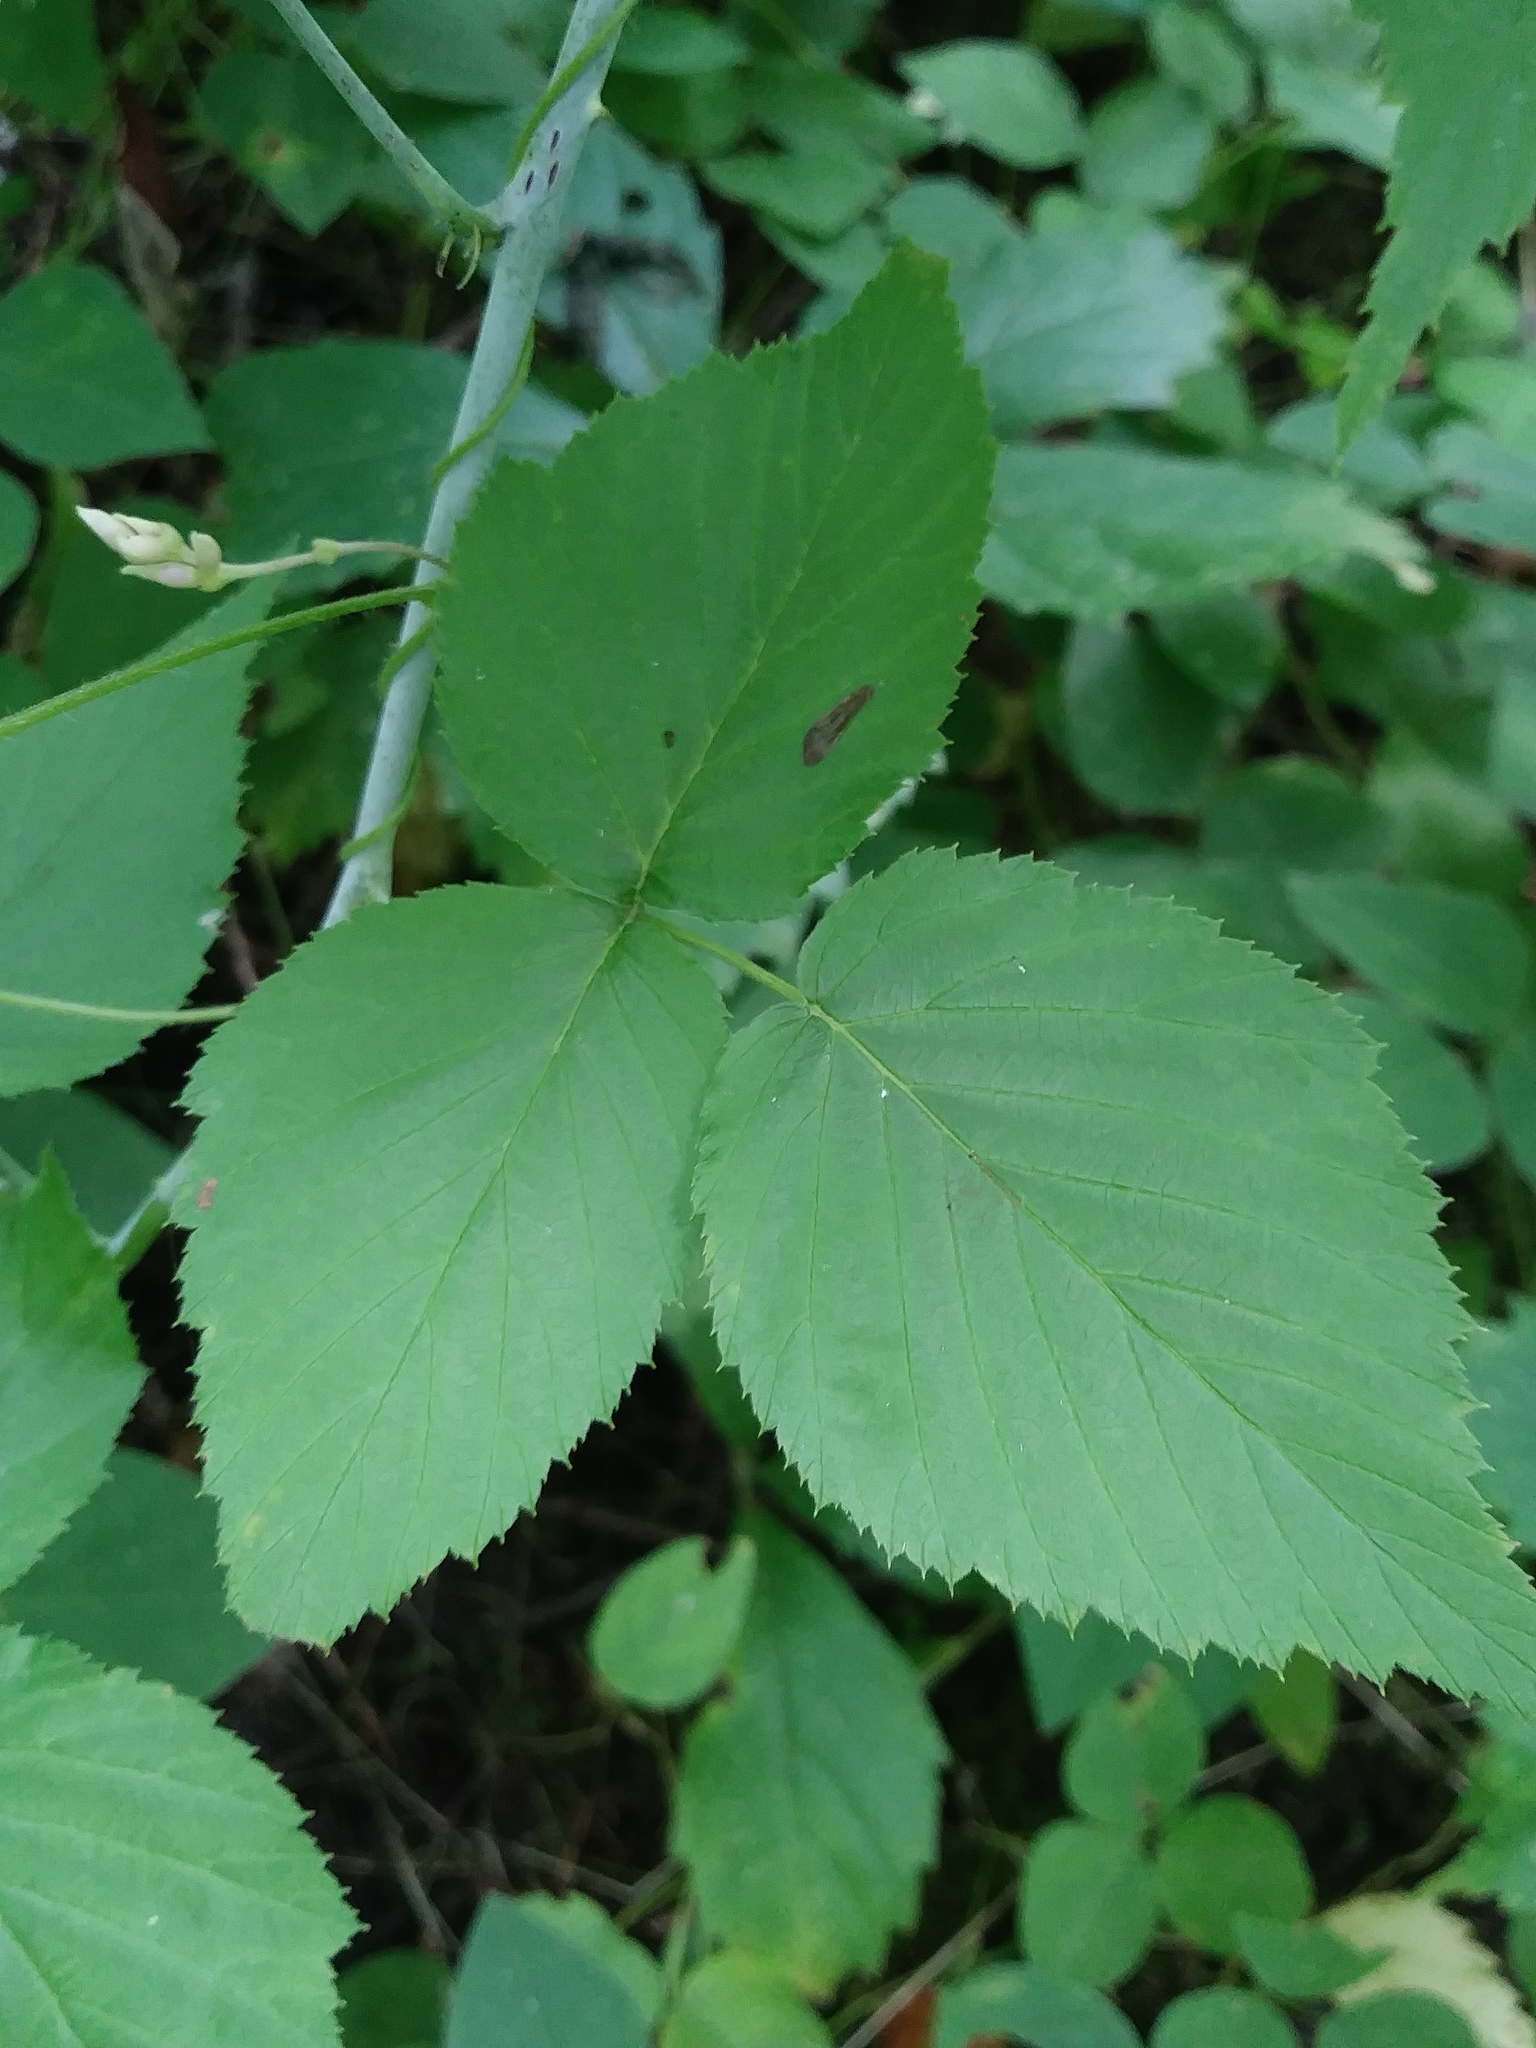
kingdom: Plantae
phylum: Tracheophyta
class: Magnoliopsida
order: Rosales
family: Rosaceae
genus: Rubus
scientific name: Rubus occidentalis
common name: Black raspberry
